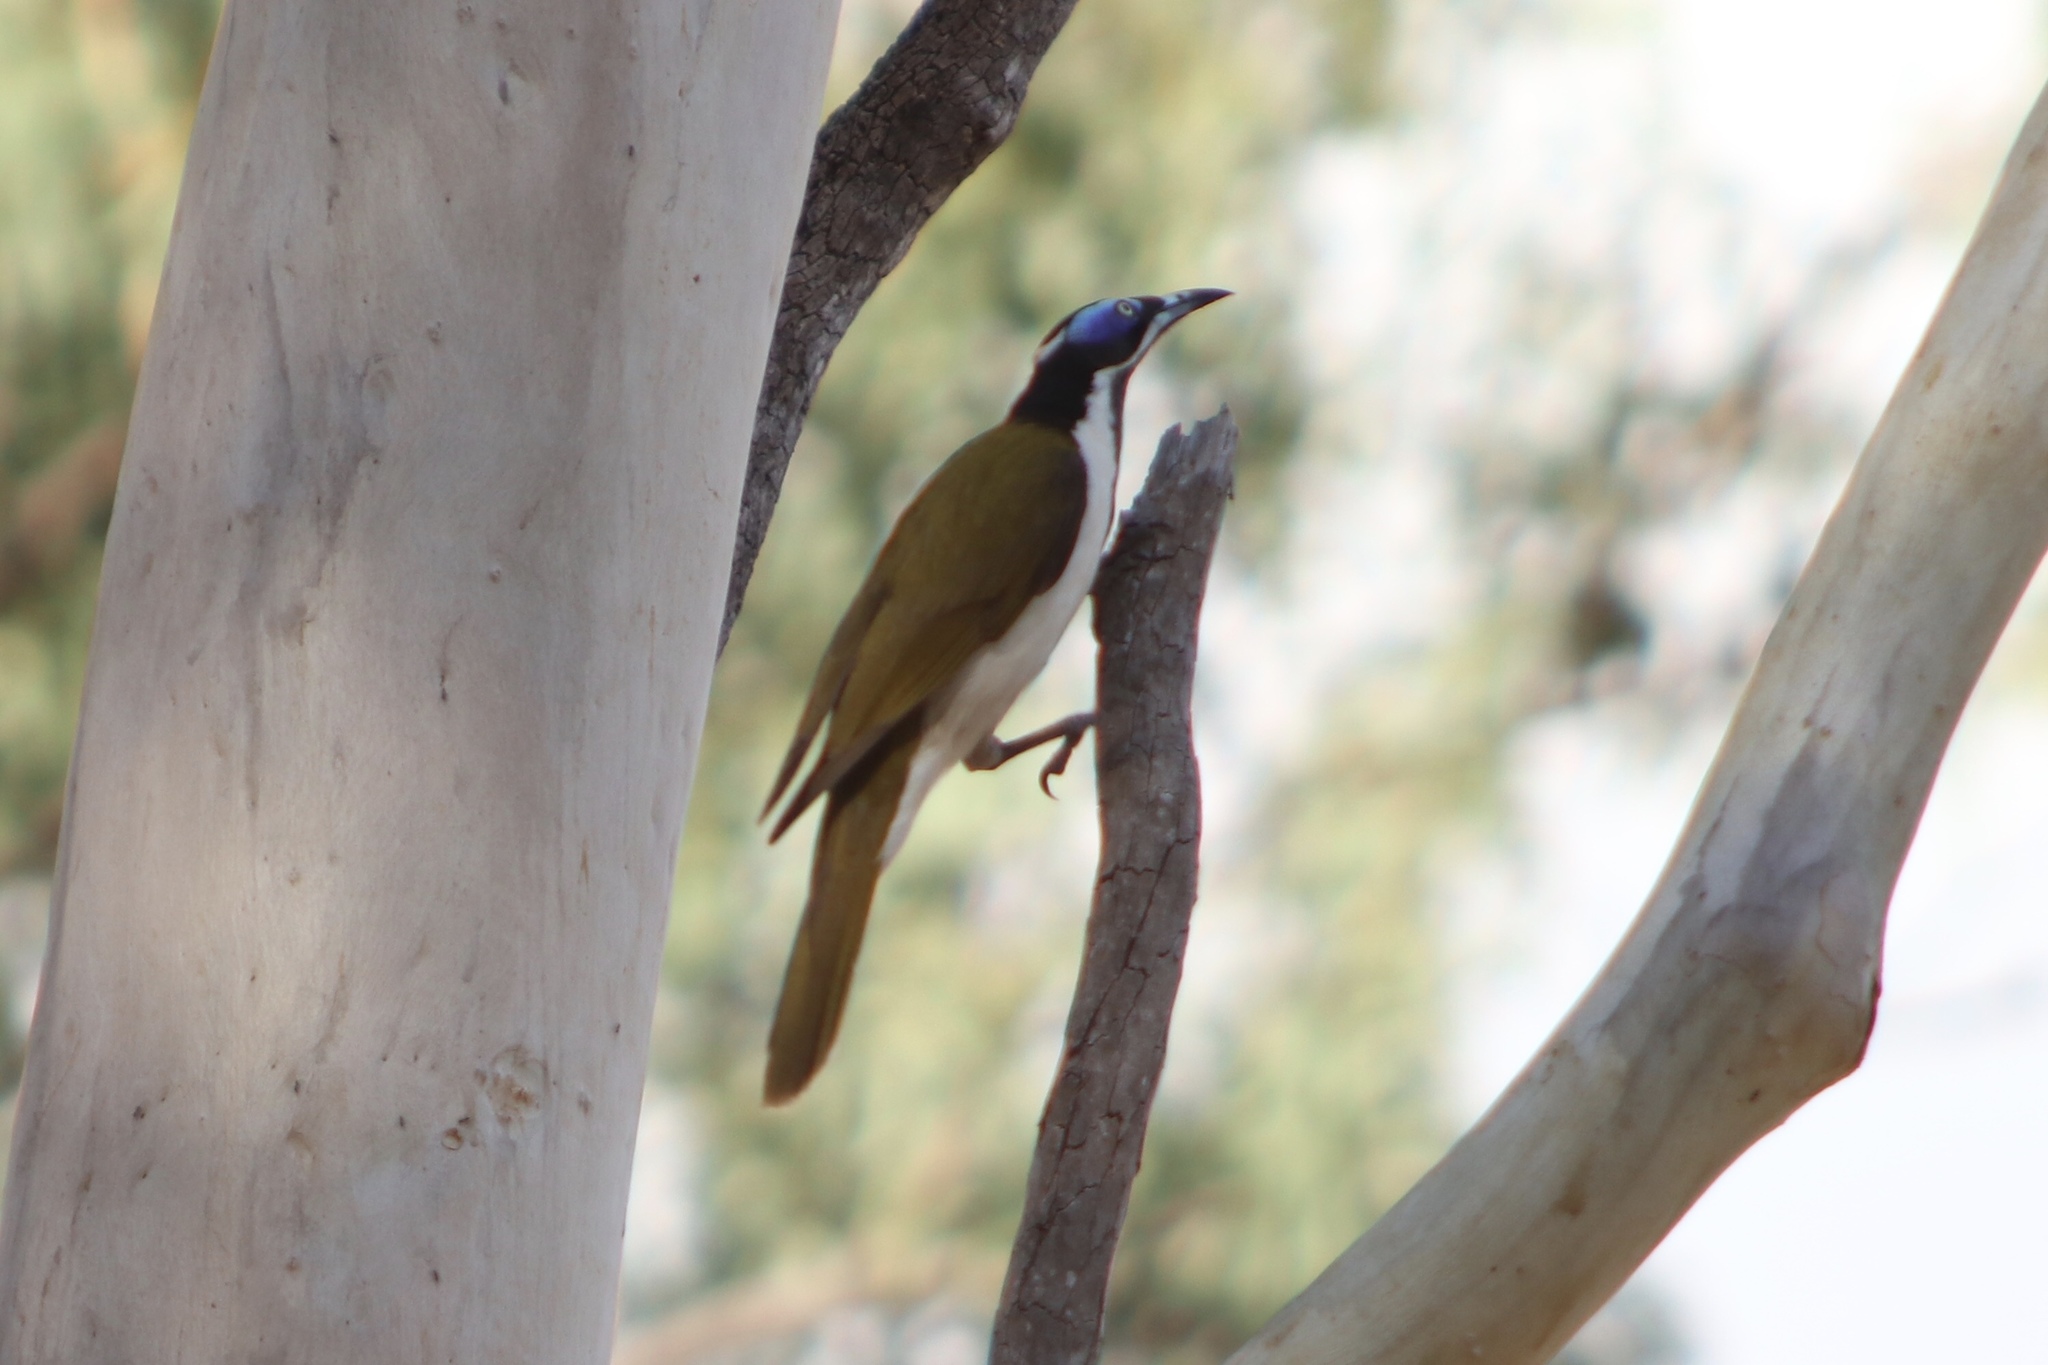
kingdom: Animalia
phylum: Chordata
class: Aves
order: Passeriformes
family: Meliphagidae
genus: Entomyzon
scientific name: Entomyzon cyanotis
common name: Blue-faced honeyeater
